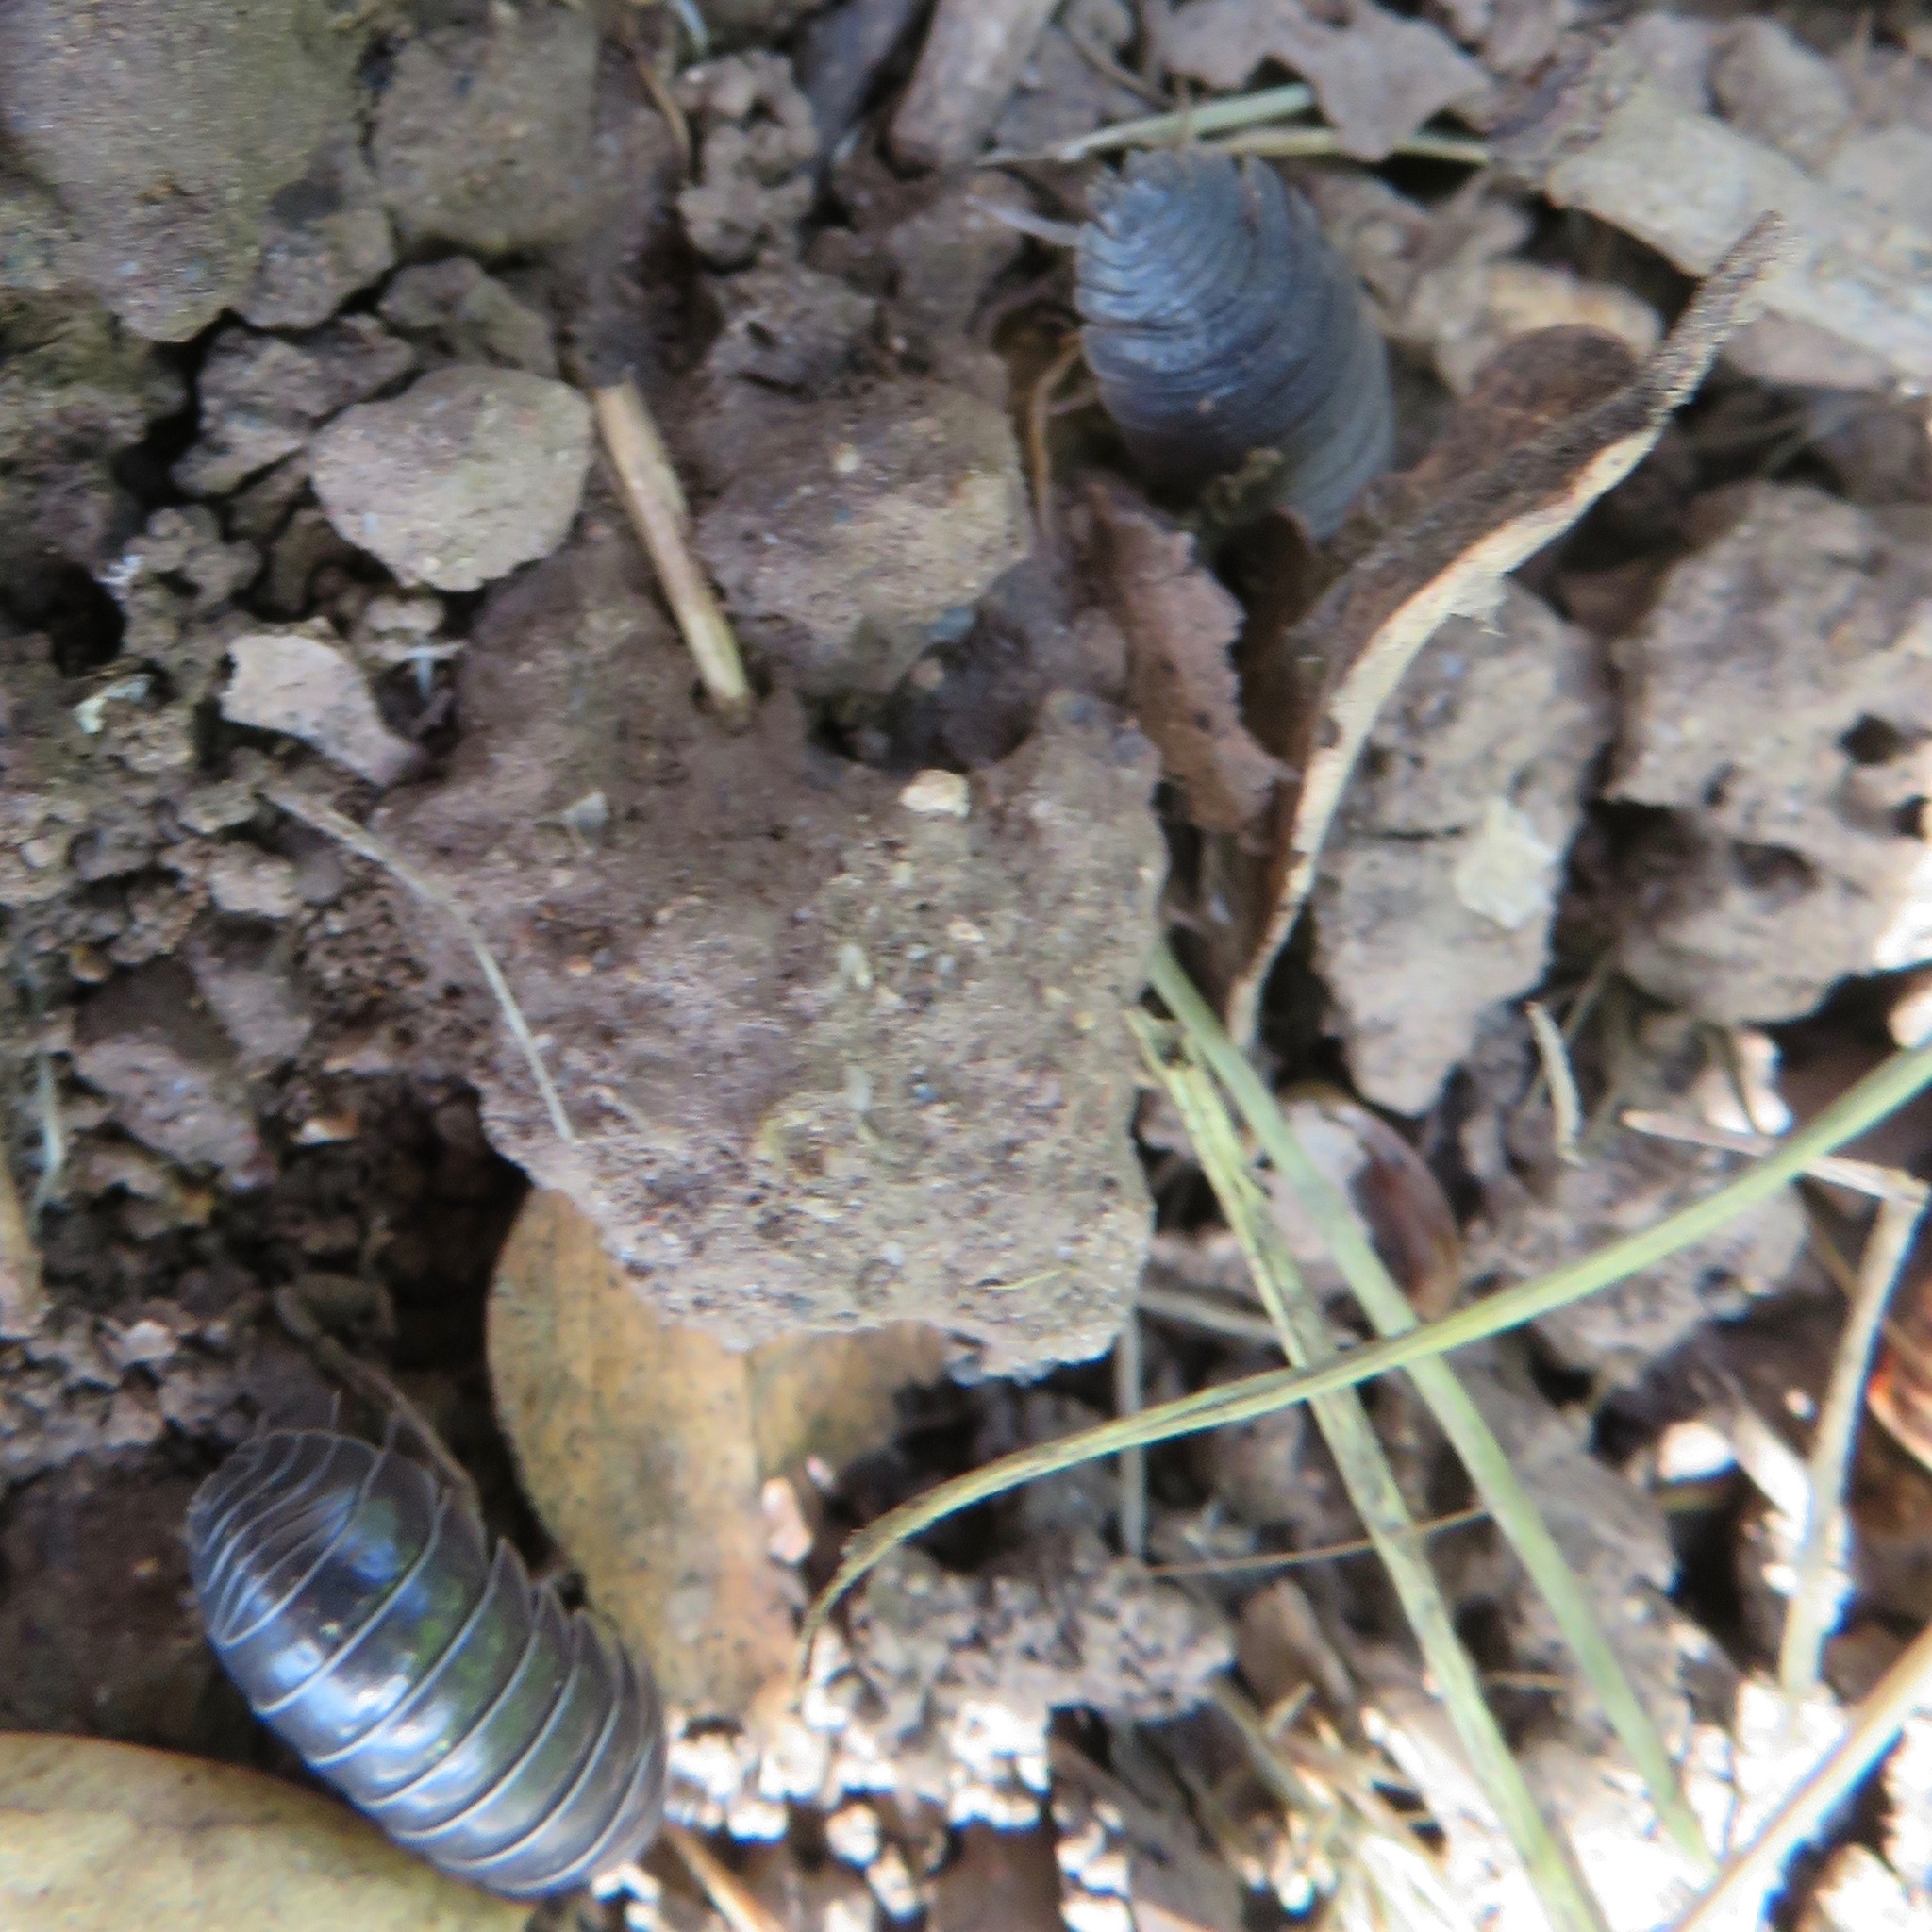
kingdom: Animalia
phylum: Arthropoda
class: Malacostraca
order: Isopoda
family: Armadillidiidae
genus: Armadillidium
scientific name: Armadillidium vulgare
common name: Common pill woodlouse
